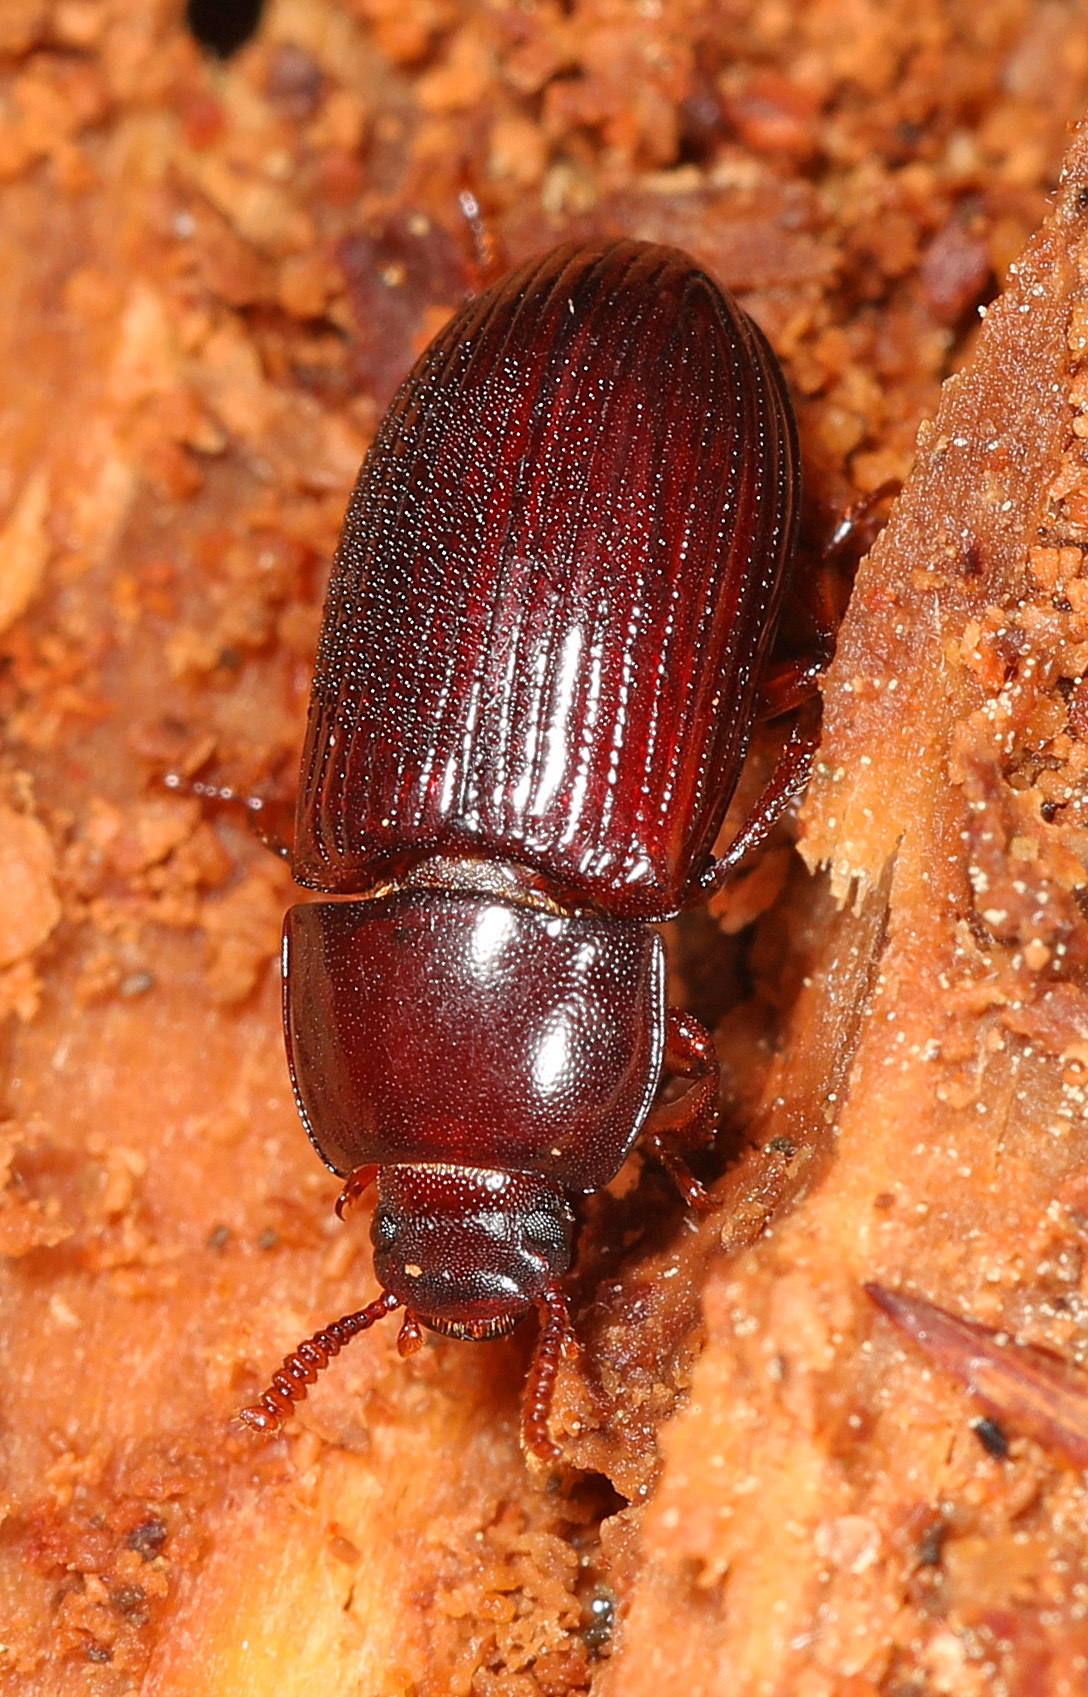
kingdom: Animalia
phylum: Arthropoda
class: Insecta
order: Coleoptera
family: Tenebrionidae
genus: Uloma
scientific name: Uloma imberbis
